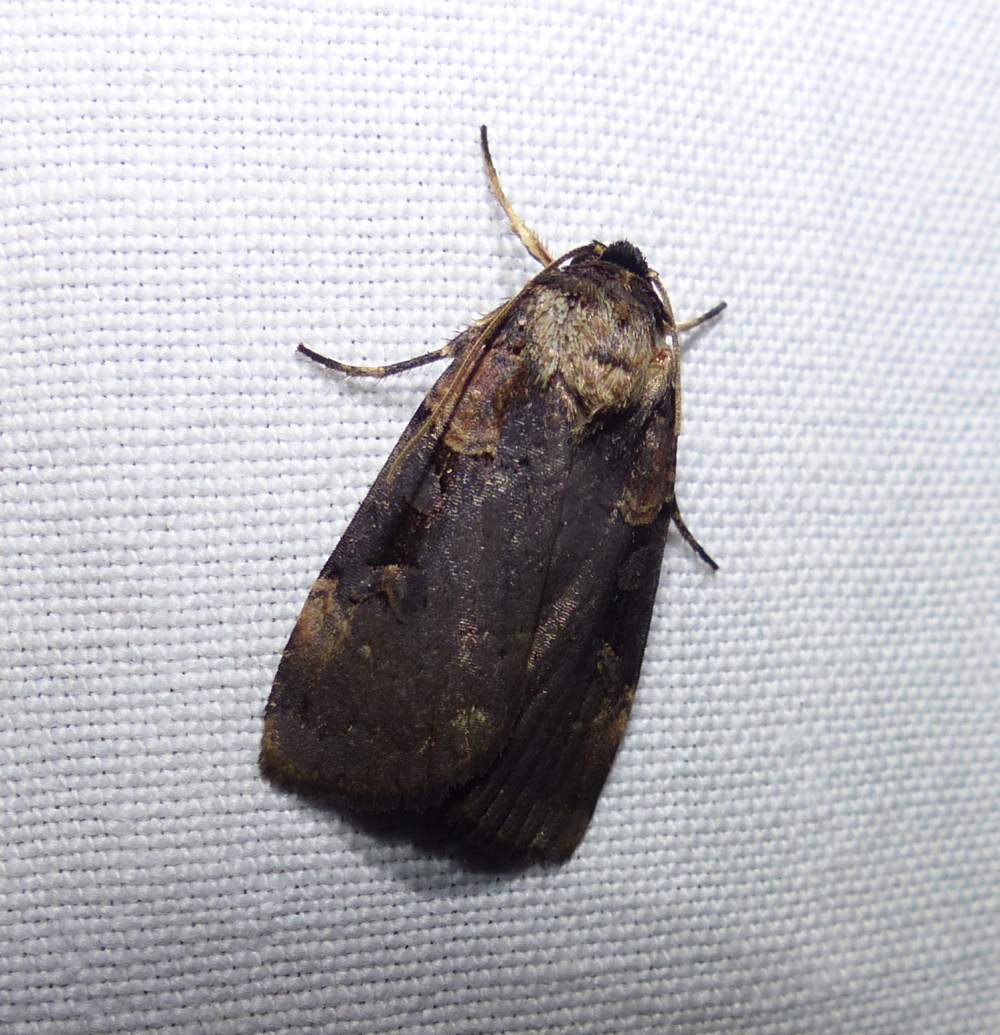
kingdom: Animalia
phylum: Arthropoda
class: Insecta
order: Lepidoptera
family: Noctuidae
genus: Pseudohermonassa
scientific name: Pseudohermonassa bicarnea
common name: Pink spotted dart
